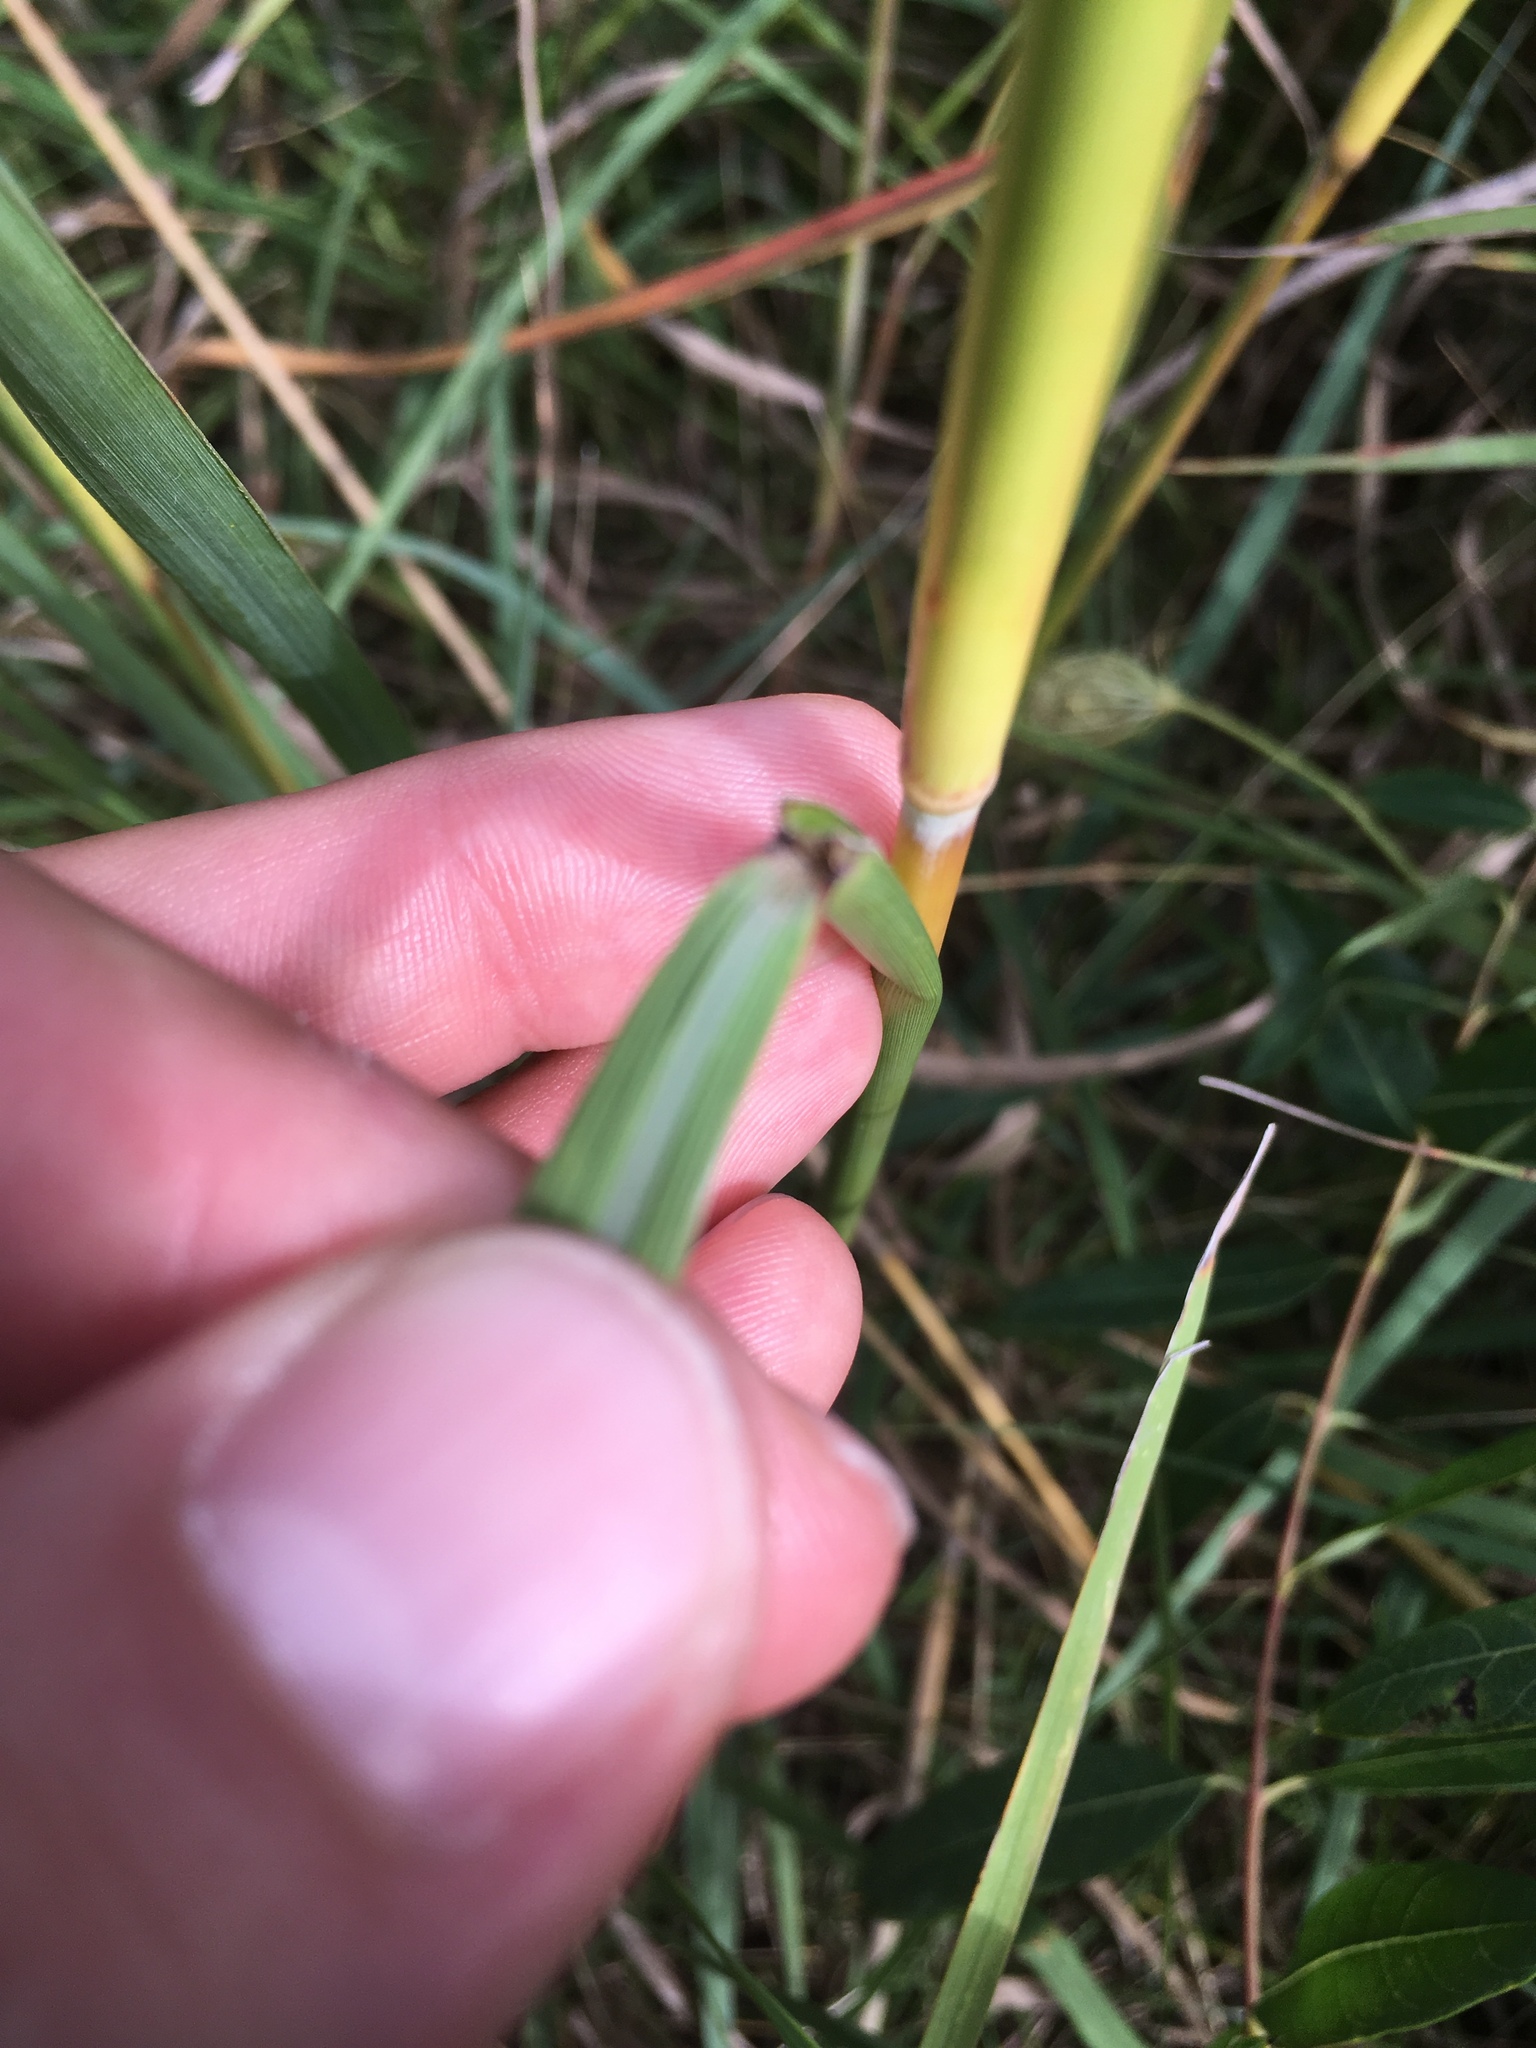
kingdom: Plantae
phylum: Tracheophyta
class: Liliopsida
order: Poales
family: Poaceae
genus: Sorghastrum
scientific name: Sorghastrum nutans
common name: Indian grass
